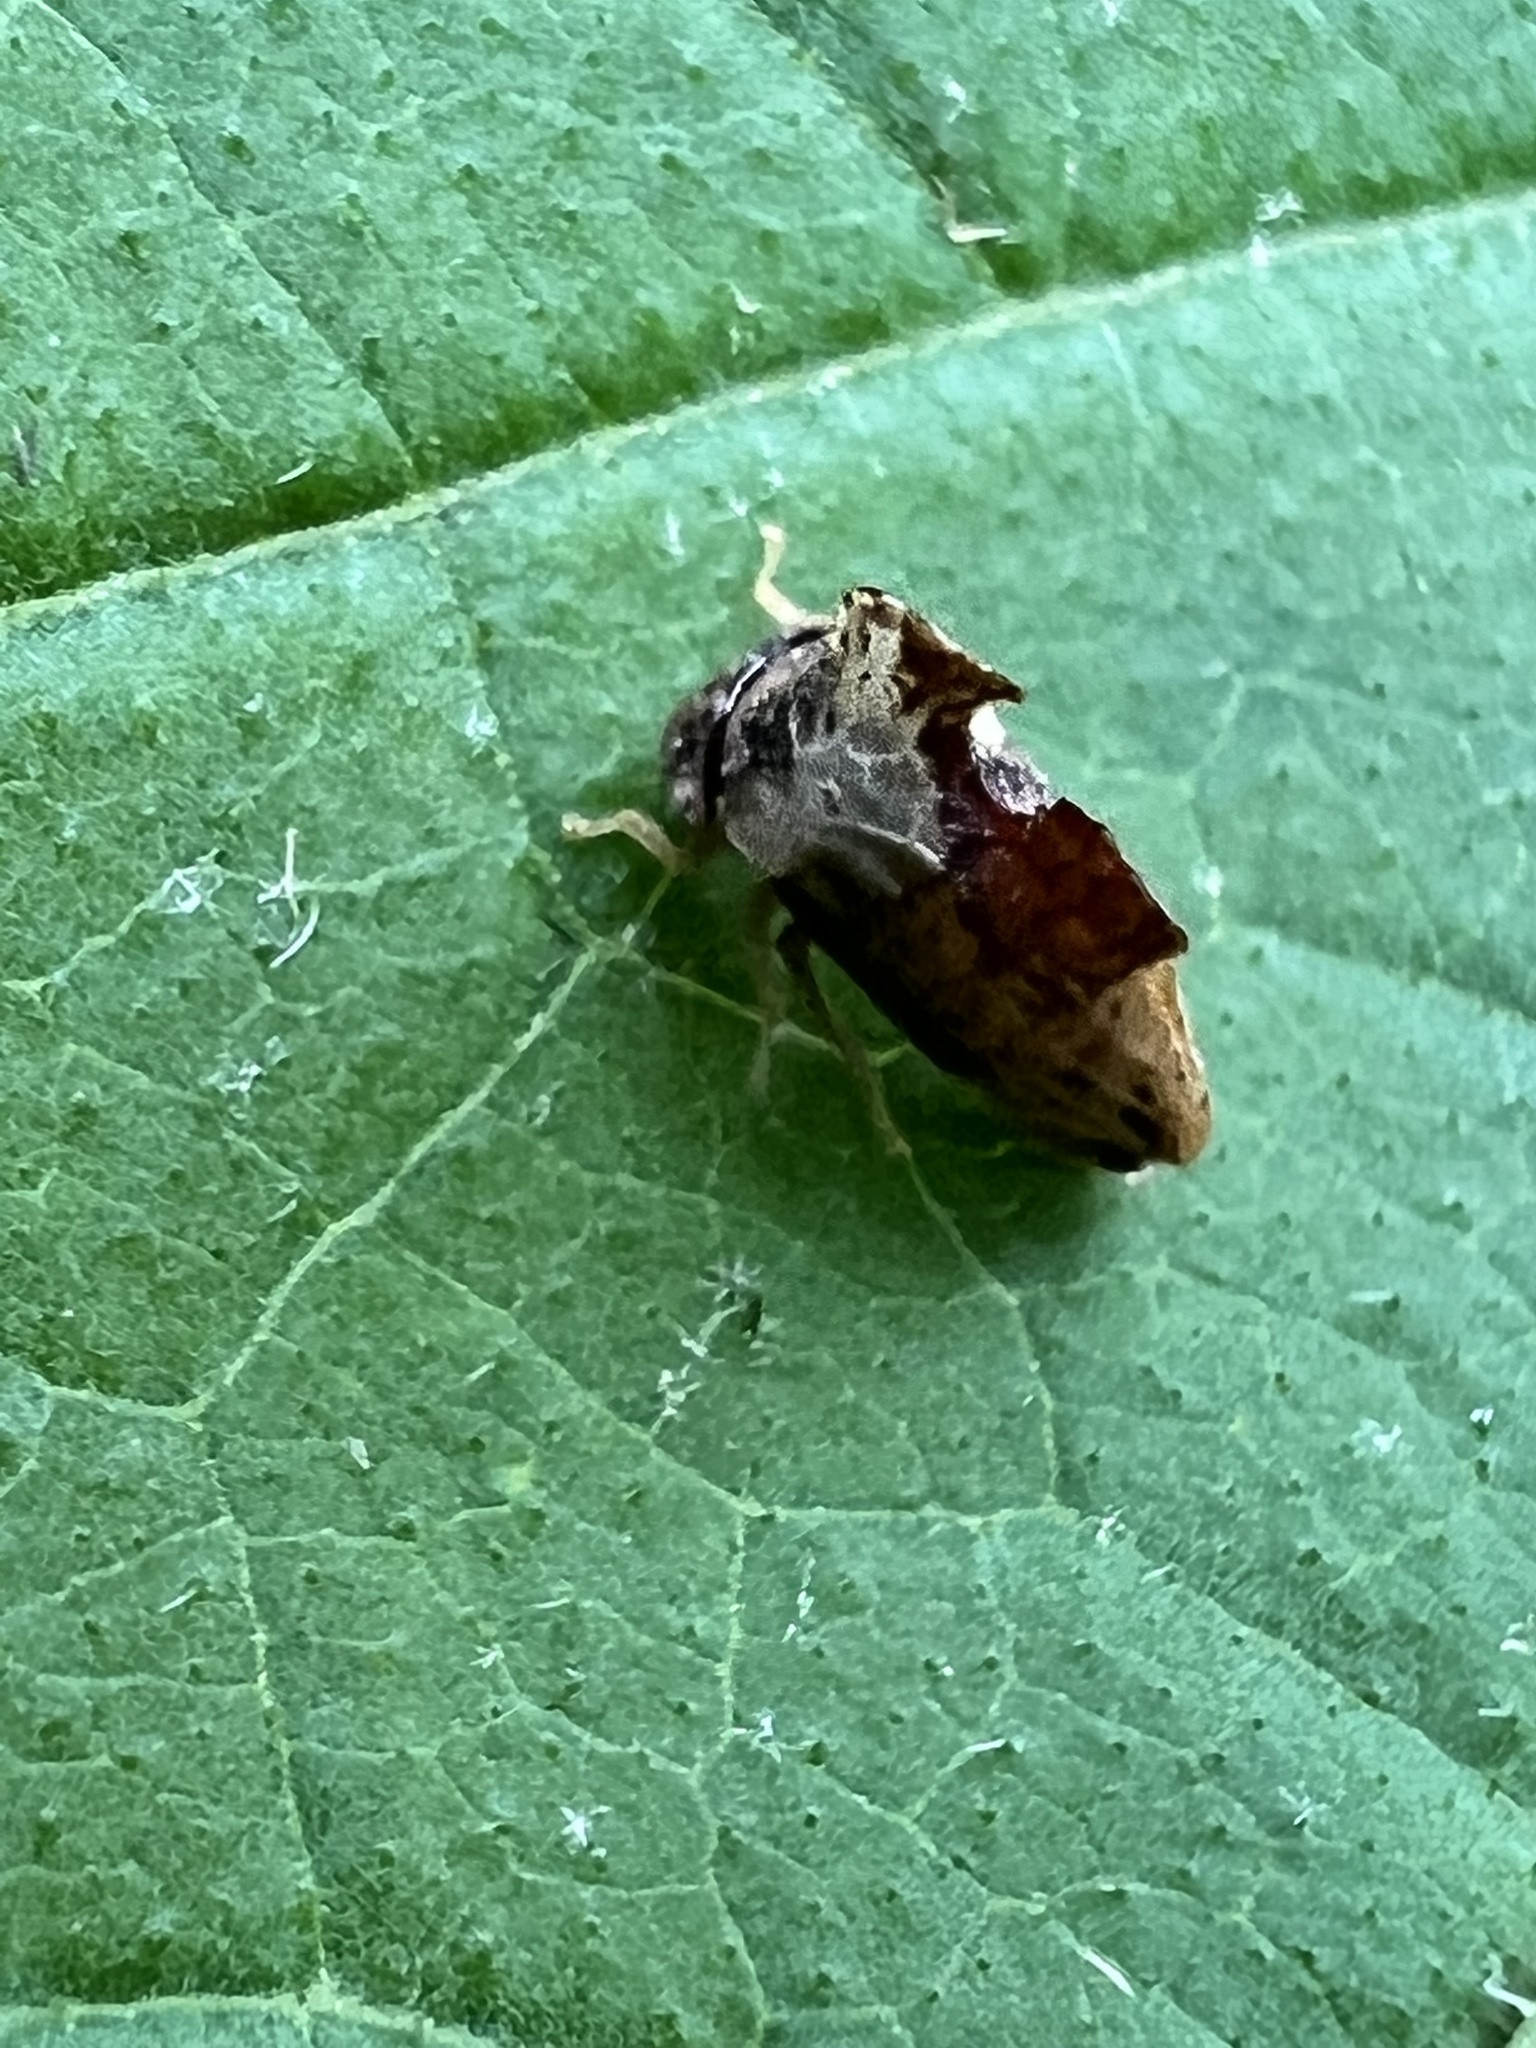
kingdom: Animalia
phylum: Arthropoda
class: Insecta
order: Hemiptera
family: Membracidae
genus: Entylia
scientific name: Entylia carinata
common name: Keeled treehopper
